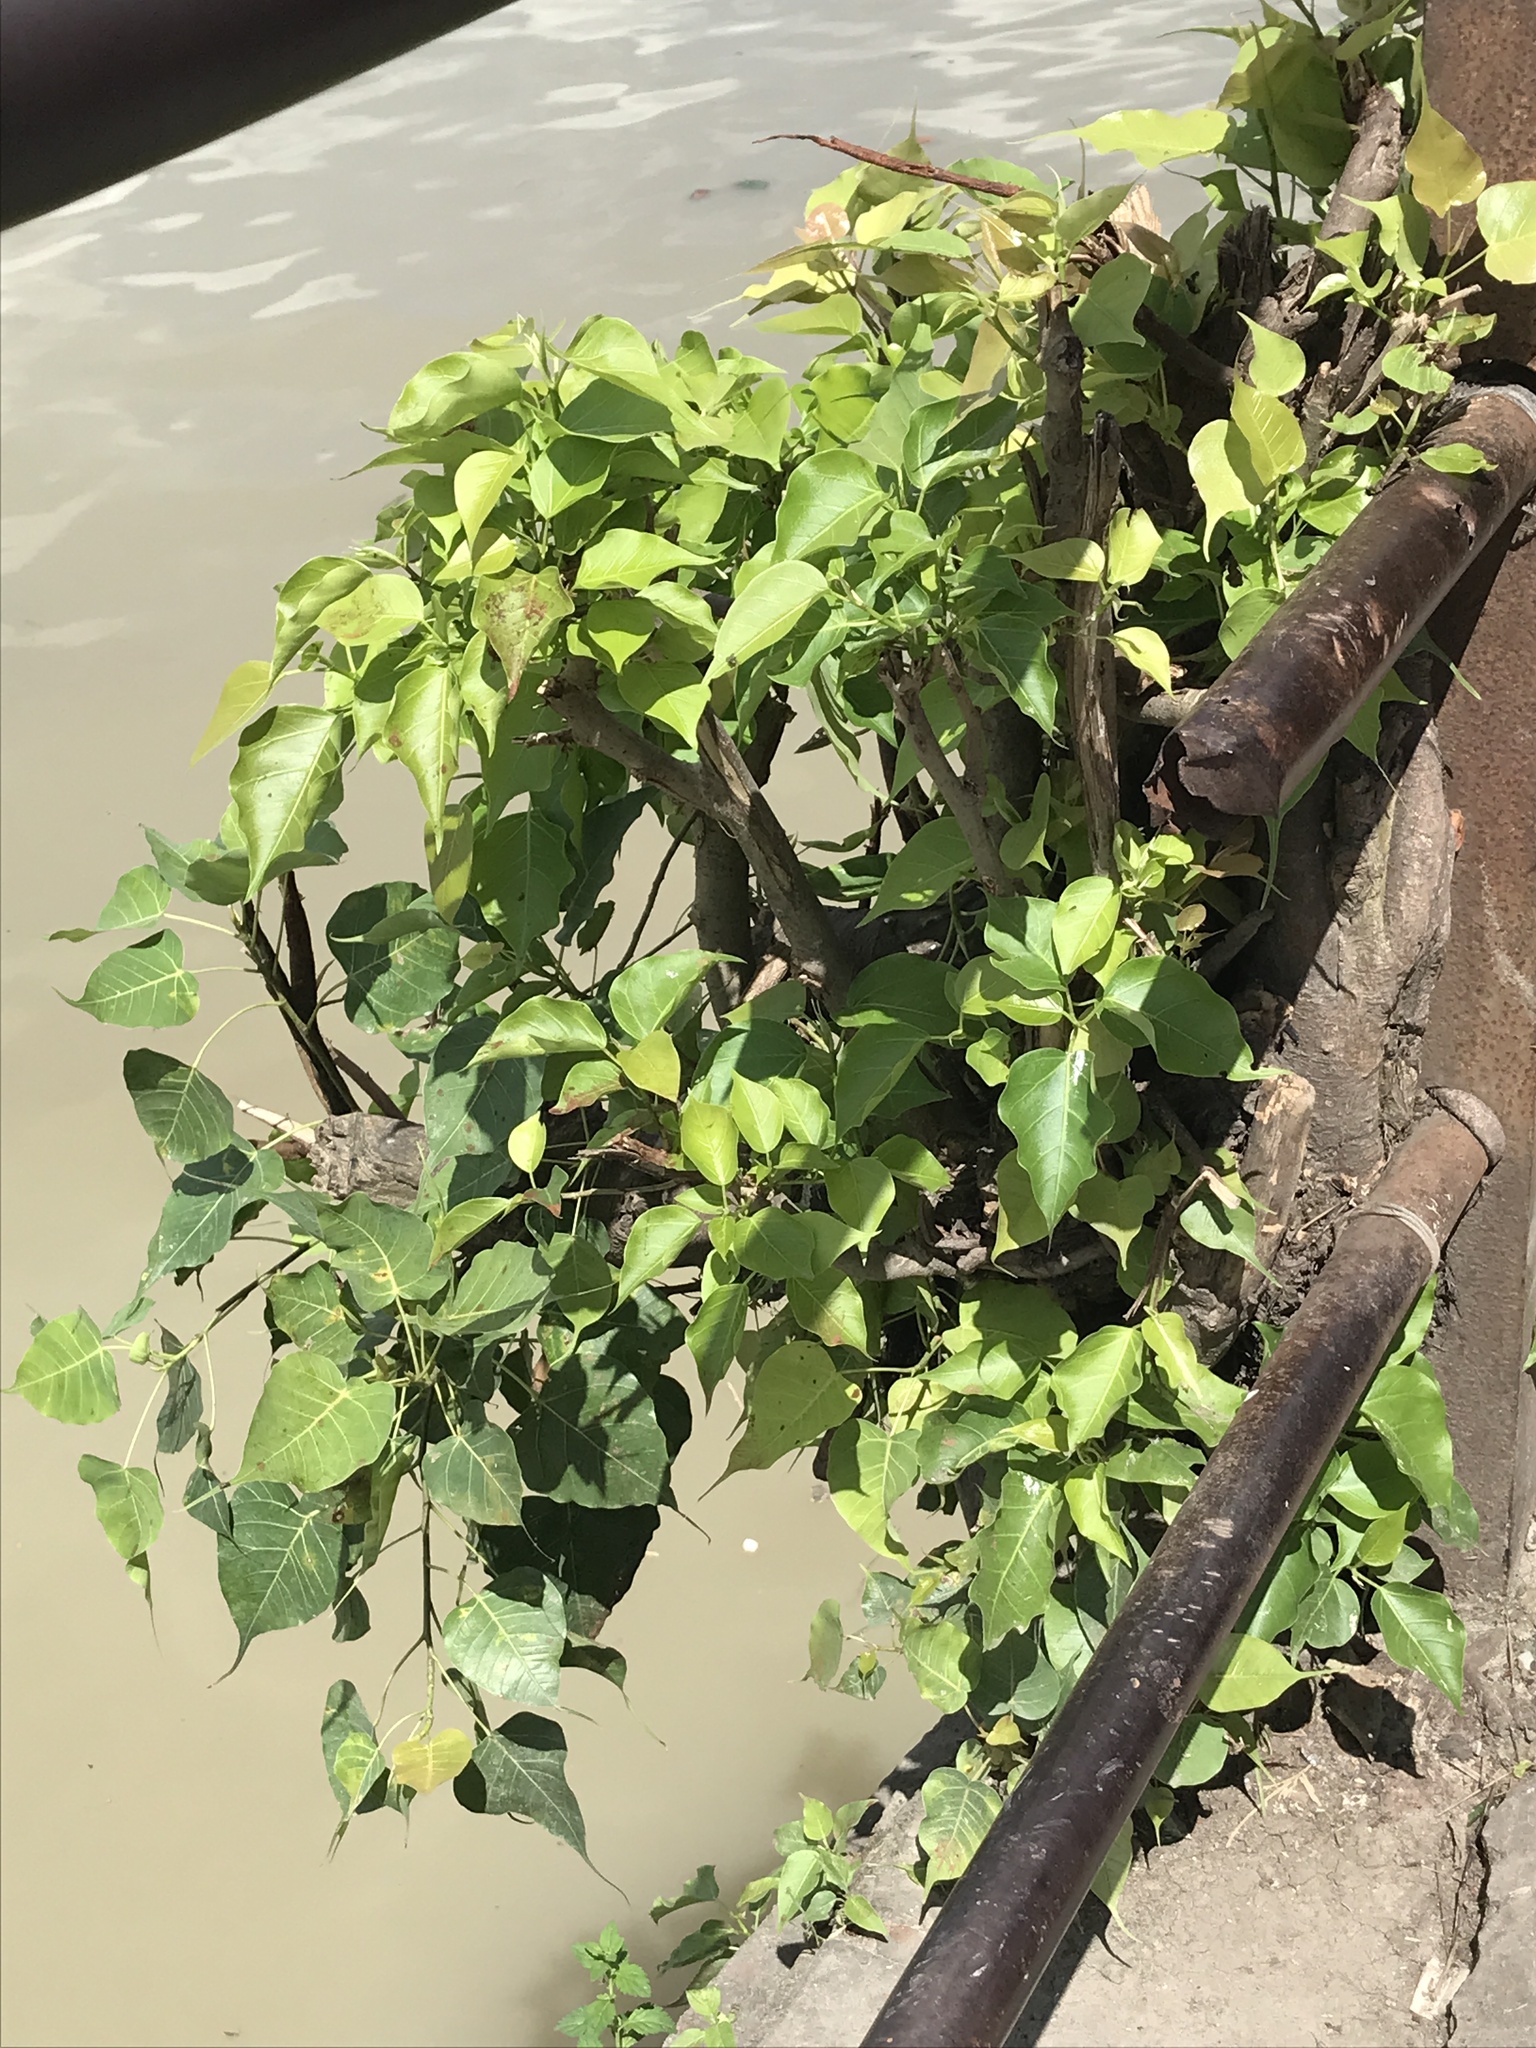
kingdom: Plantae
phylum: Tracheophyta
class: Magnoliopsida
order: Rosales
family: Moraceae
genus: Ficus
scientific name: Ficus religiosa
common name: Bodhi tree
